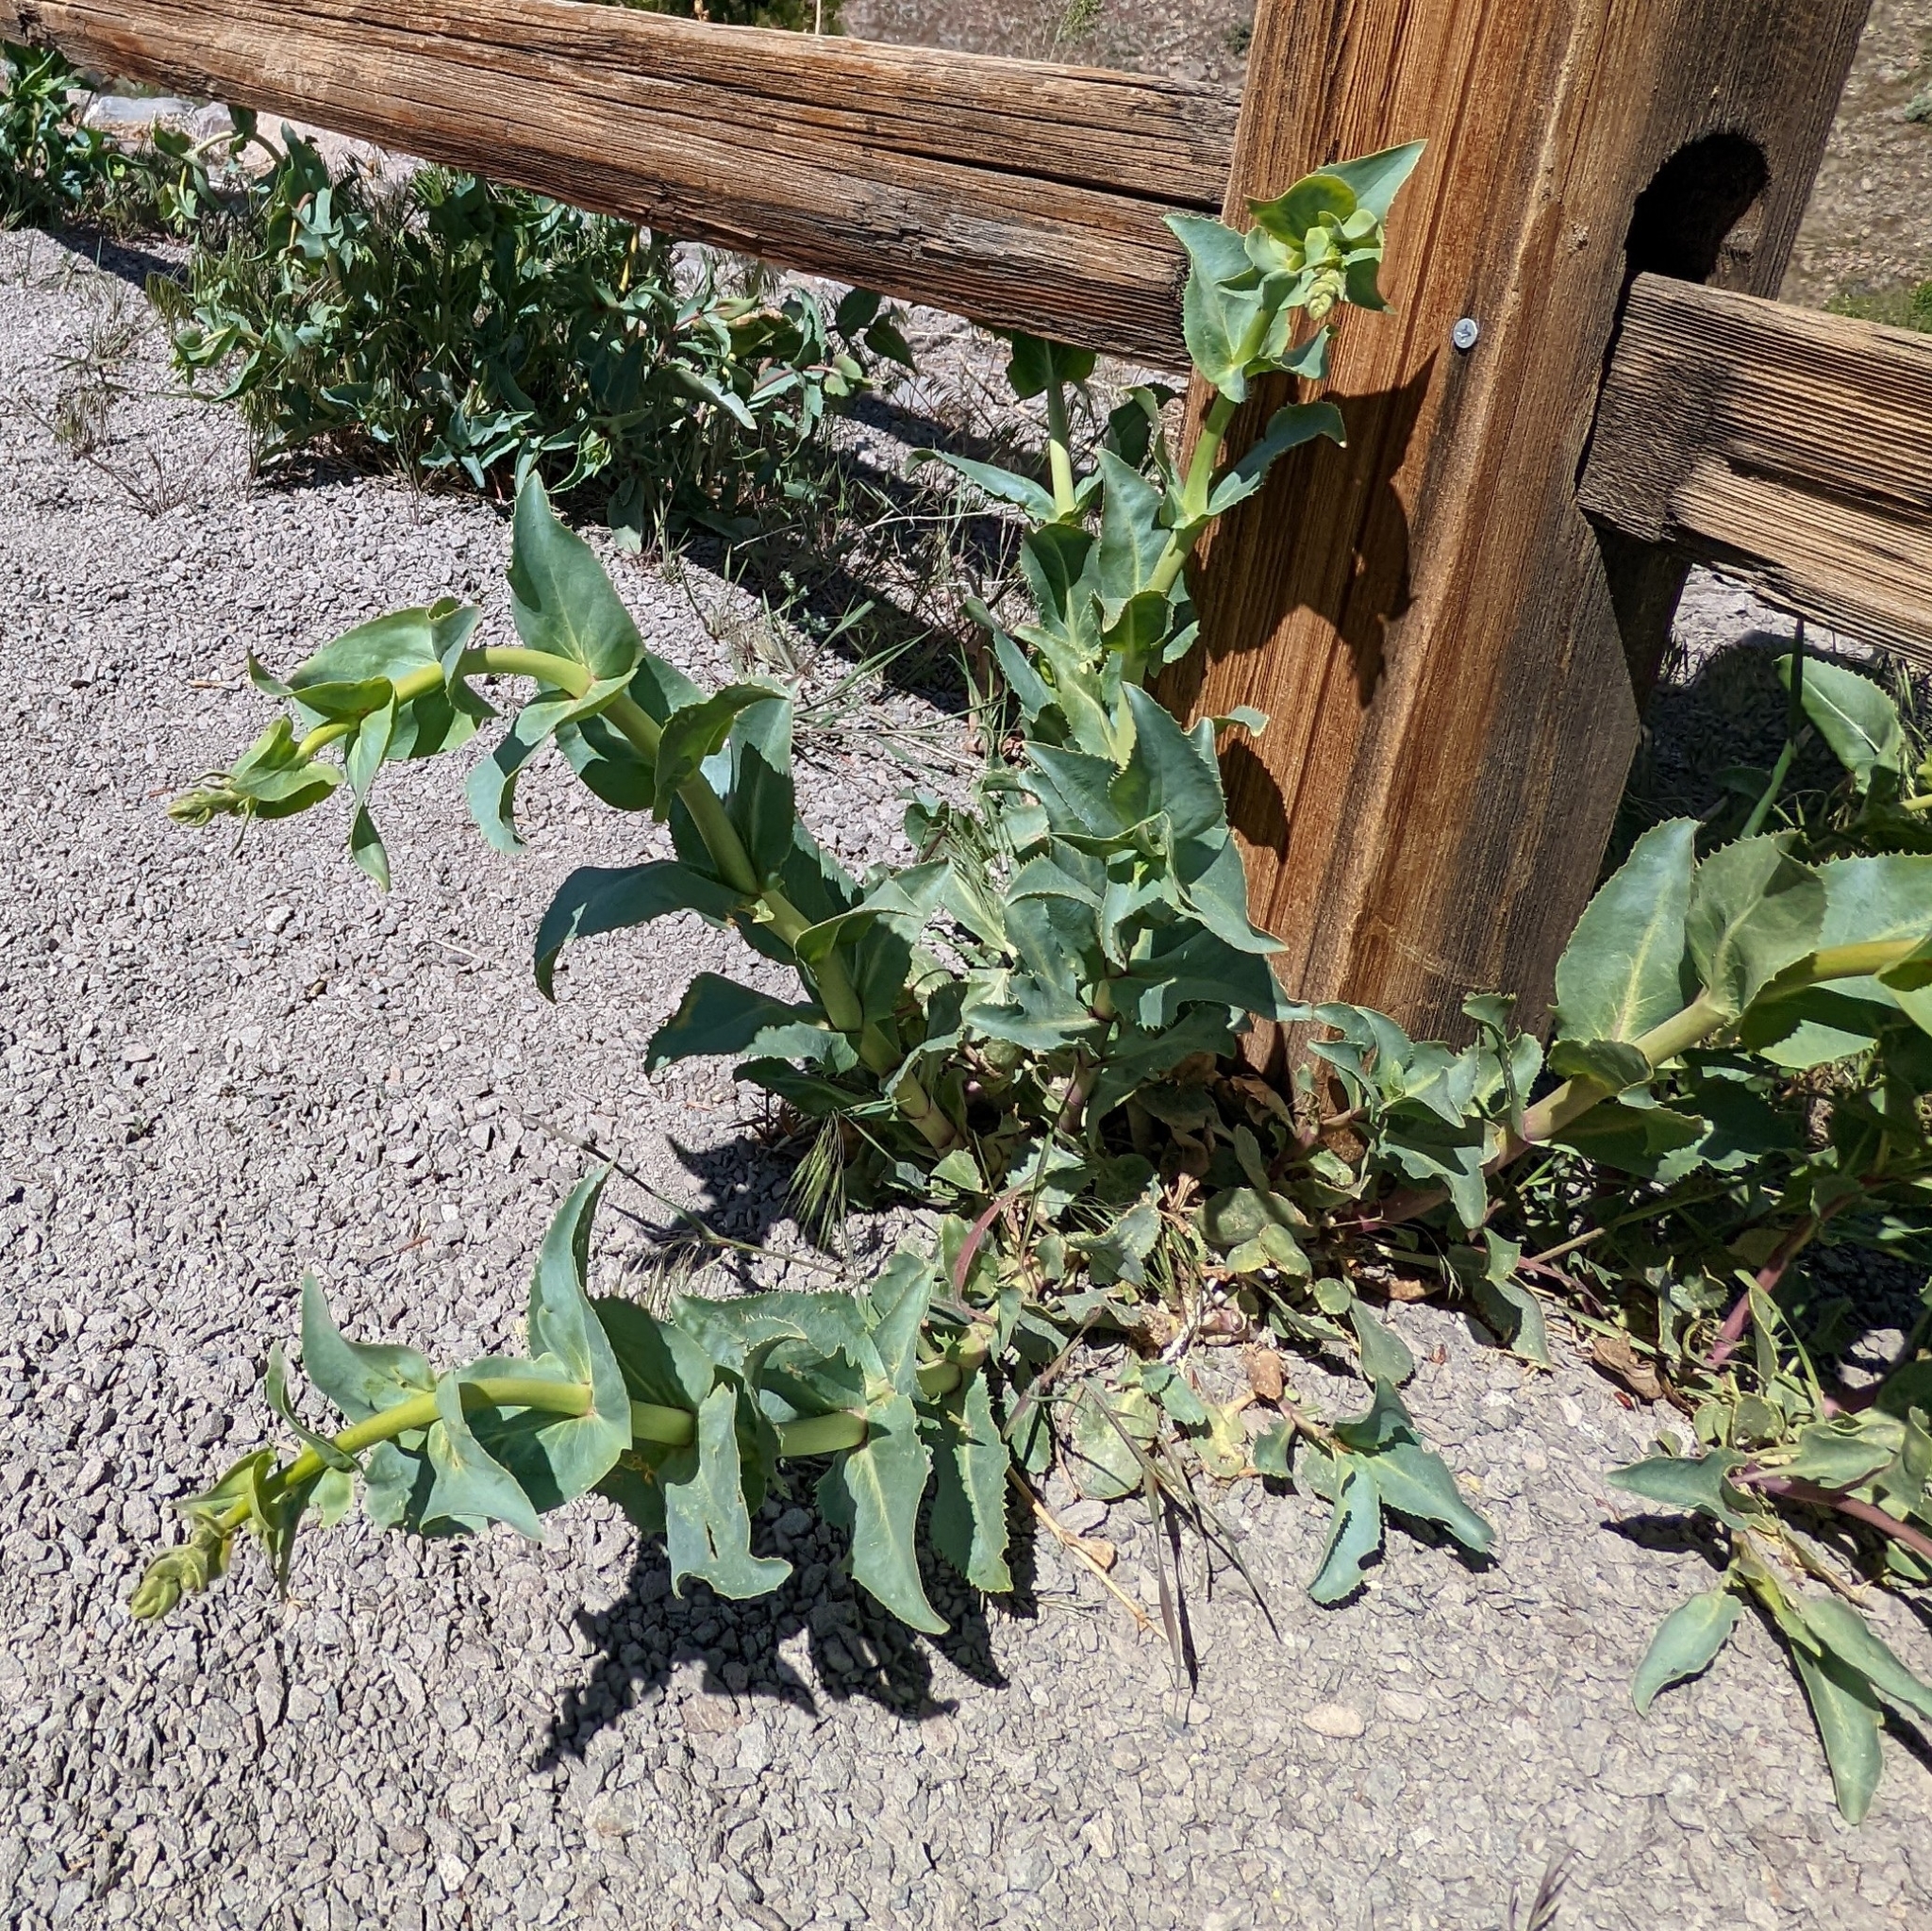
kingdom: Plantae
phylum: Tracheophyta
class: Magnoliopsida
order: Lamiales
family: Plantaginaceae
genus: Penstemon
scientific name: Penstemon palmeri
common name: Palmer penstemon
